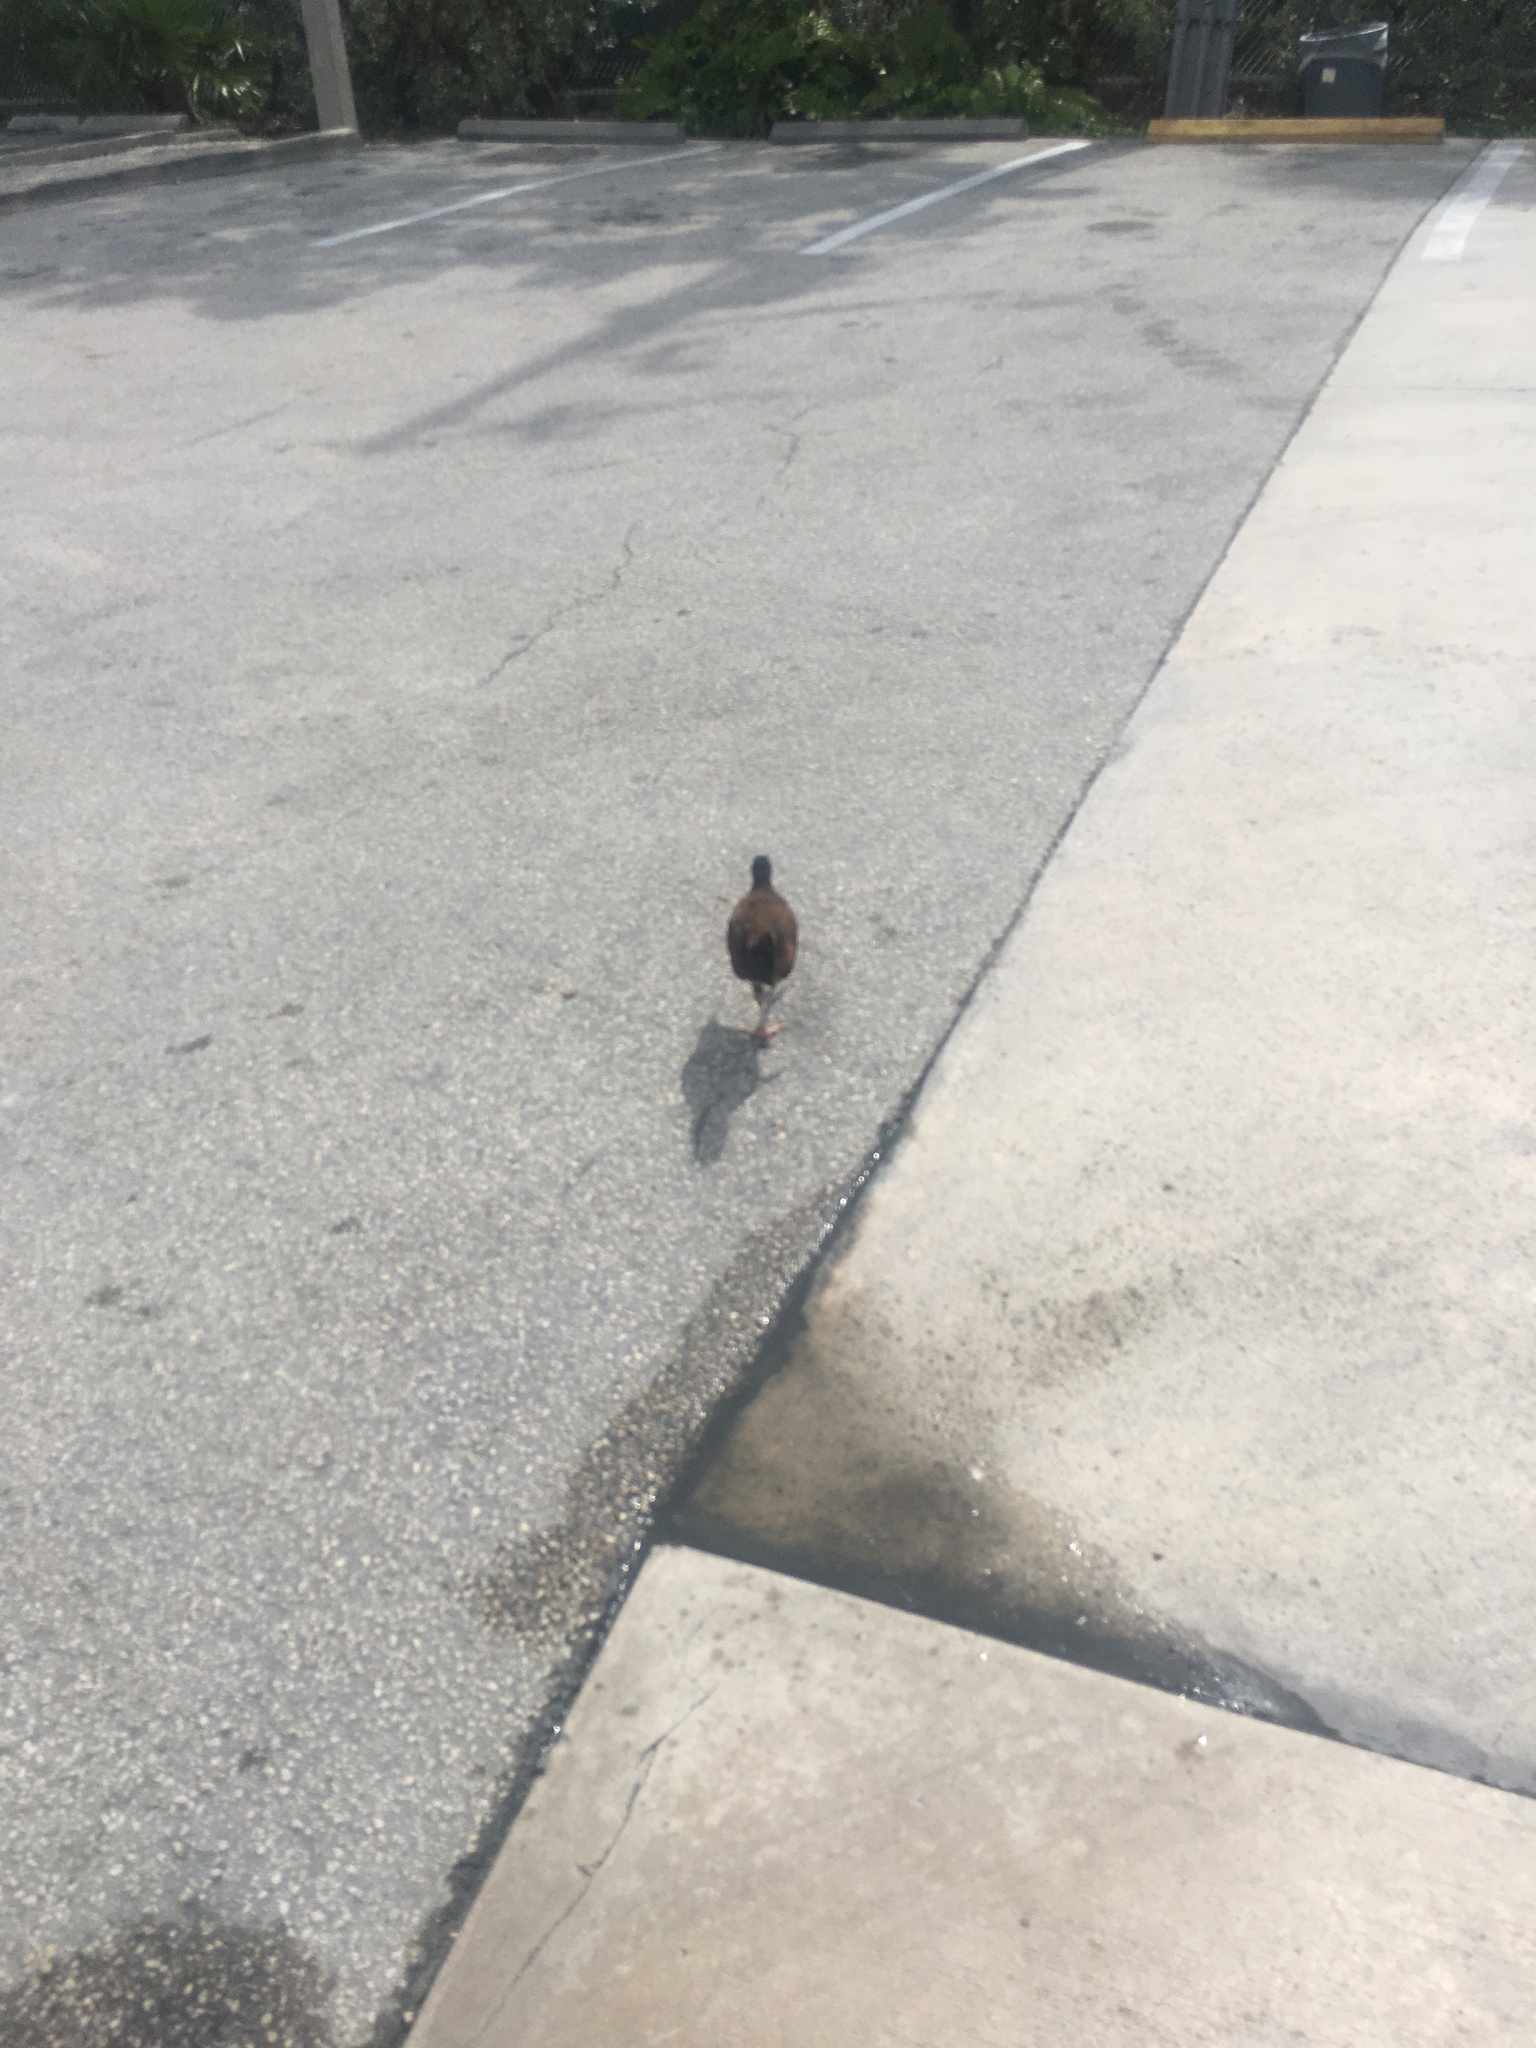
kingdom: Animalia
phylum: Chordata
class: Aves
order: Galliformes
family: Phasianidae
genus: Gallus
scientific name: Gallus gallus
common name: Red junglefowl
